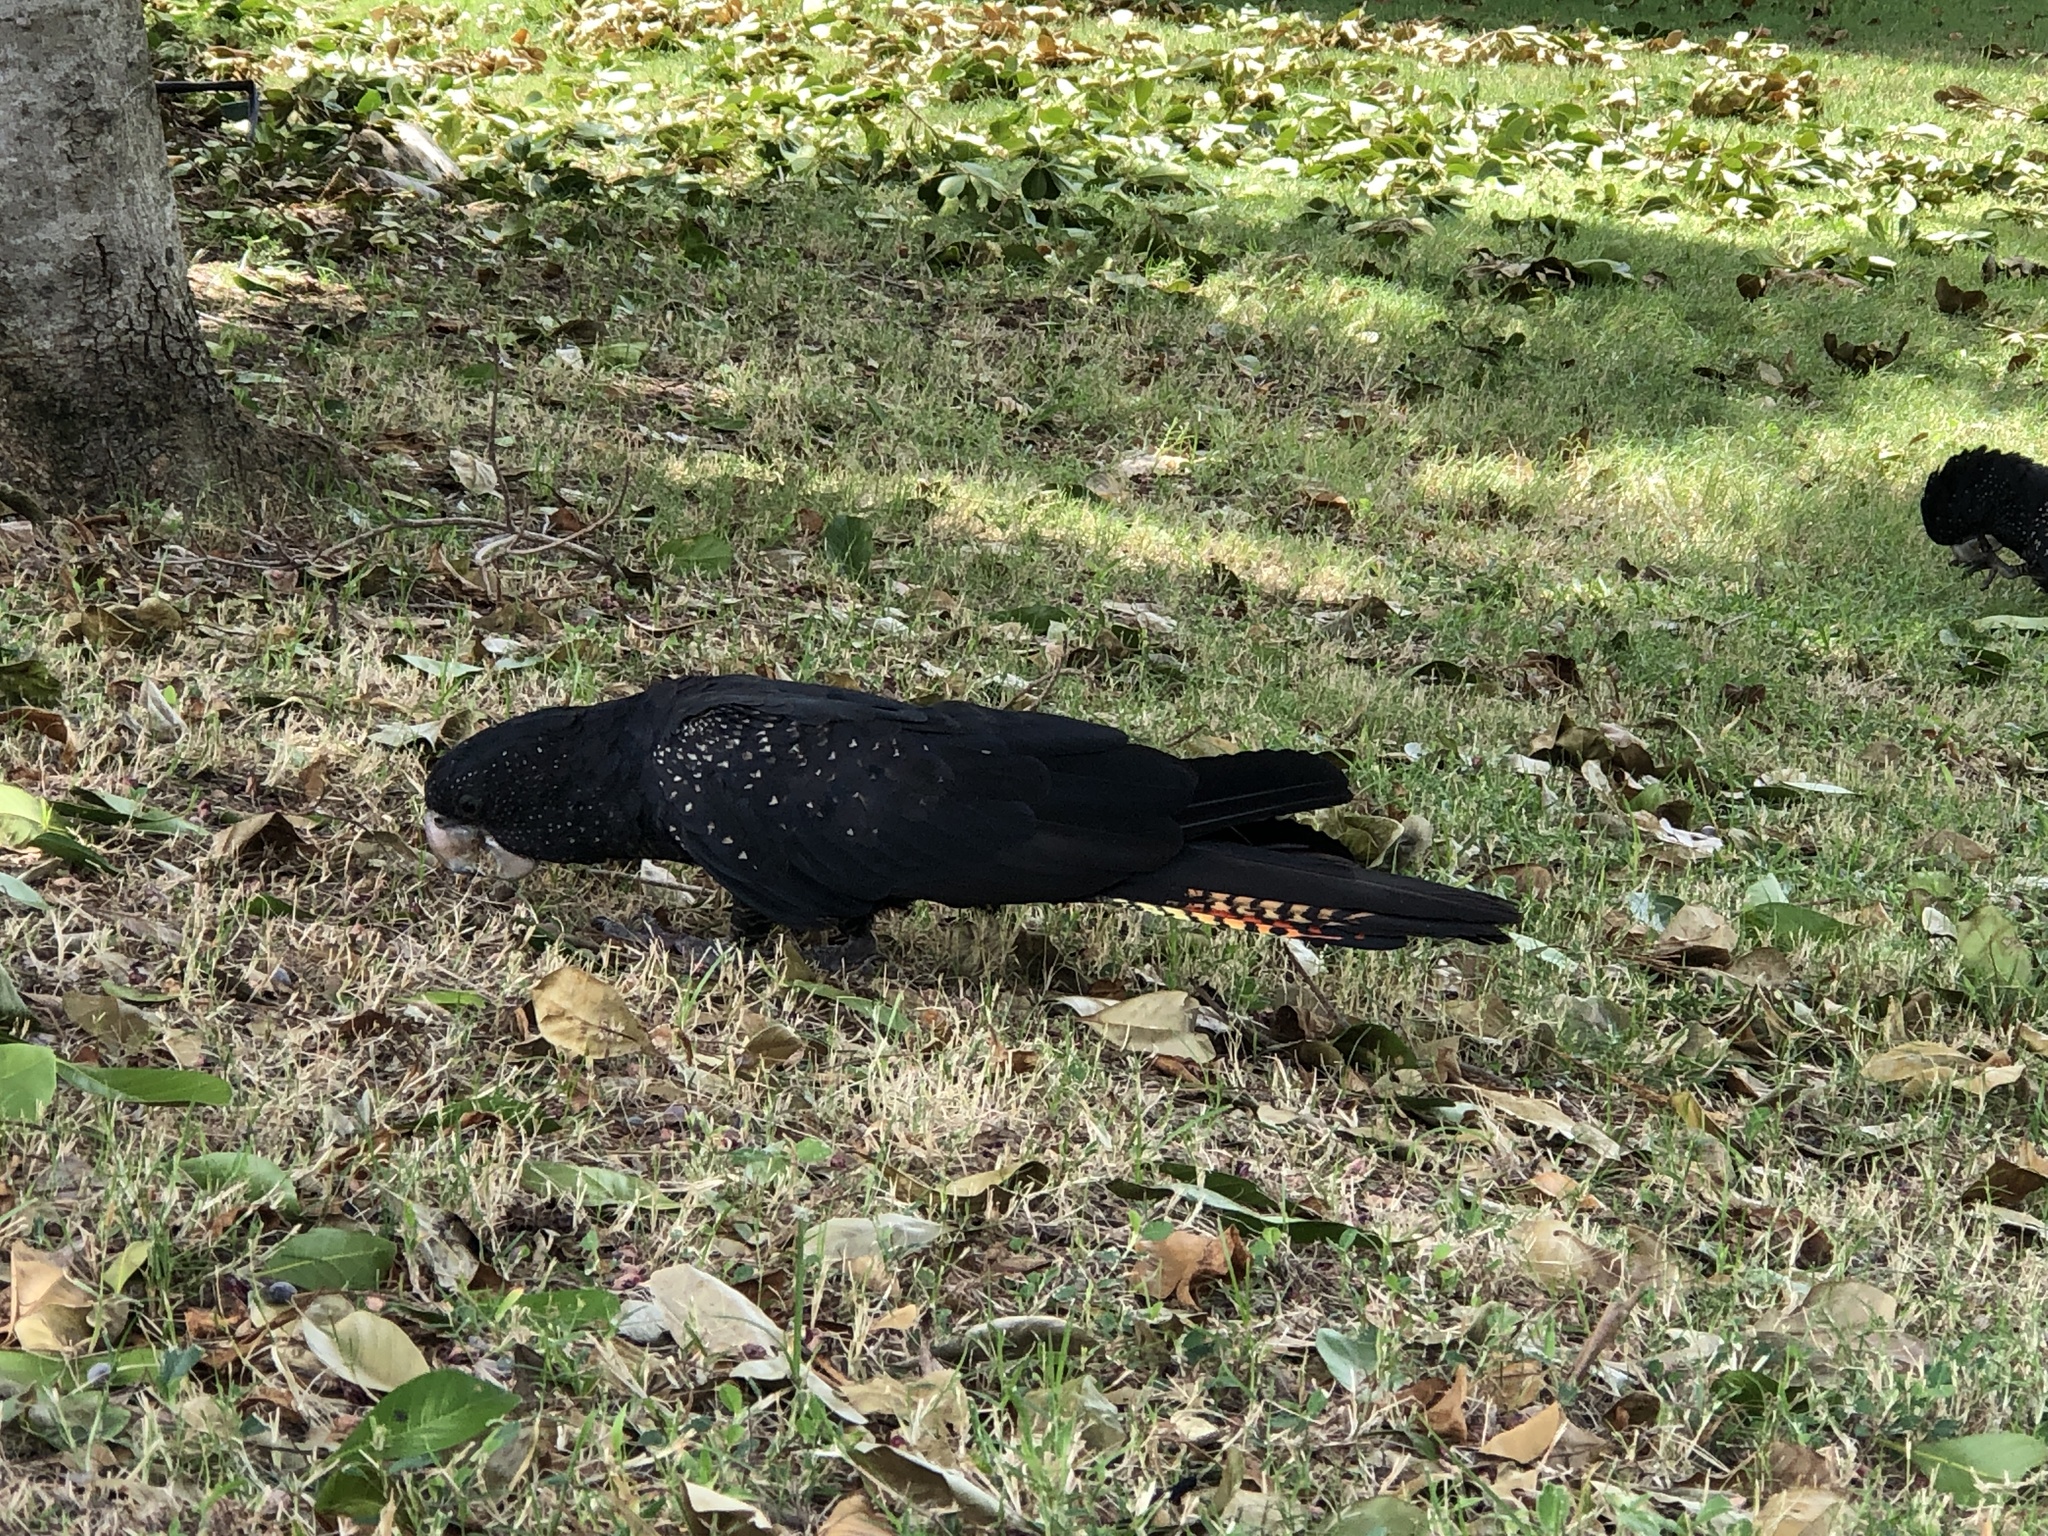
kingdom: Animalia
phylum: Chordata
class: Aves
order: Psittaciformes
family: Psittacidae
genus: Calyptorhynchus
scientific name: Calyptorhynchus banksii
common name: Red-tailed black cockatoo
